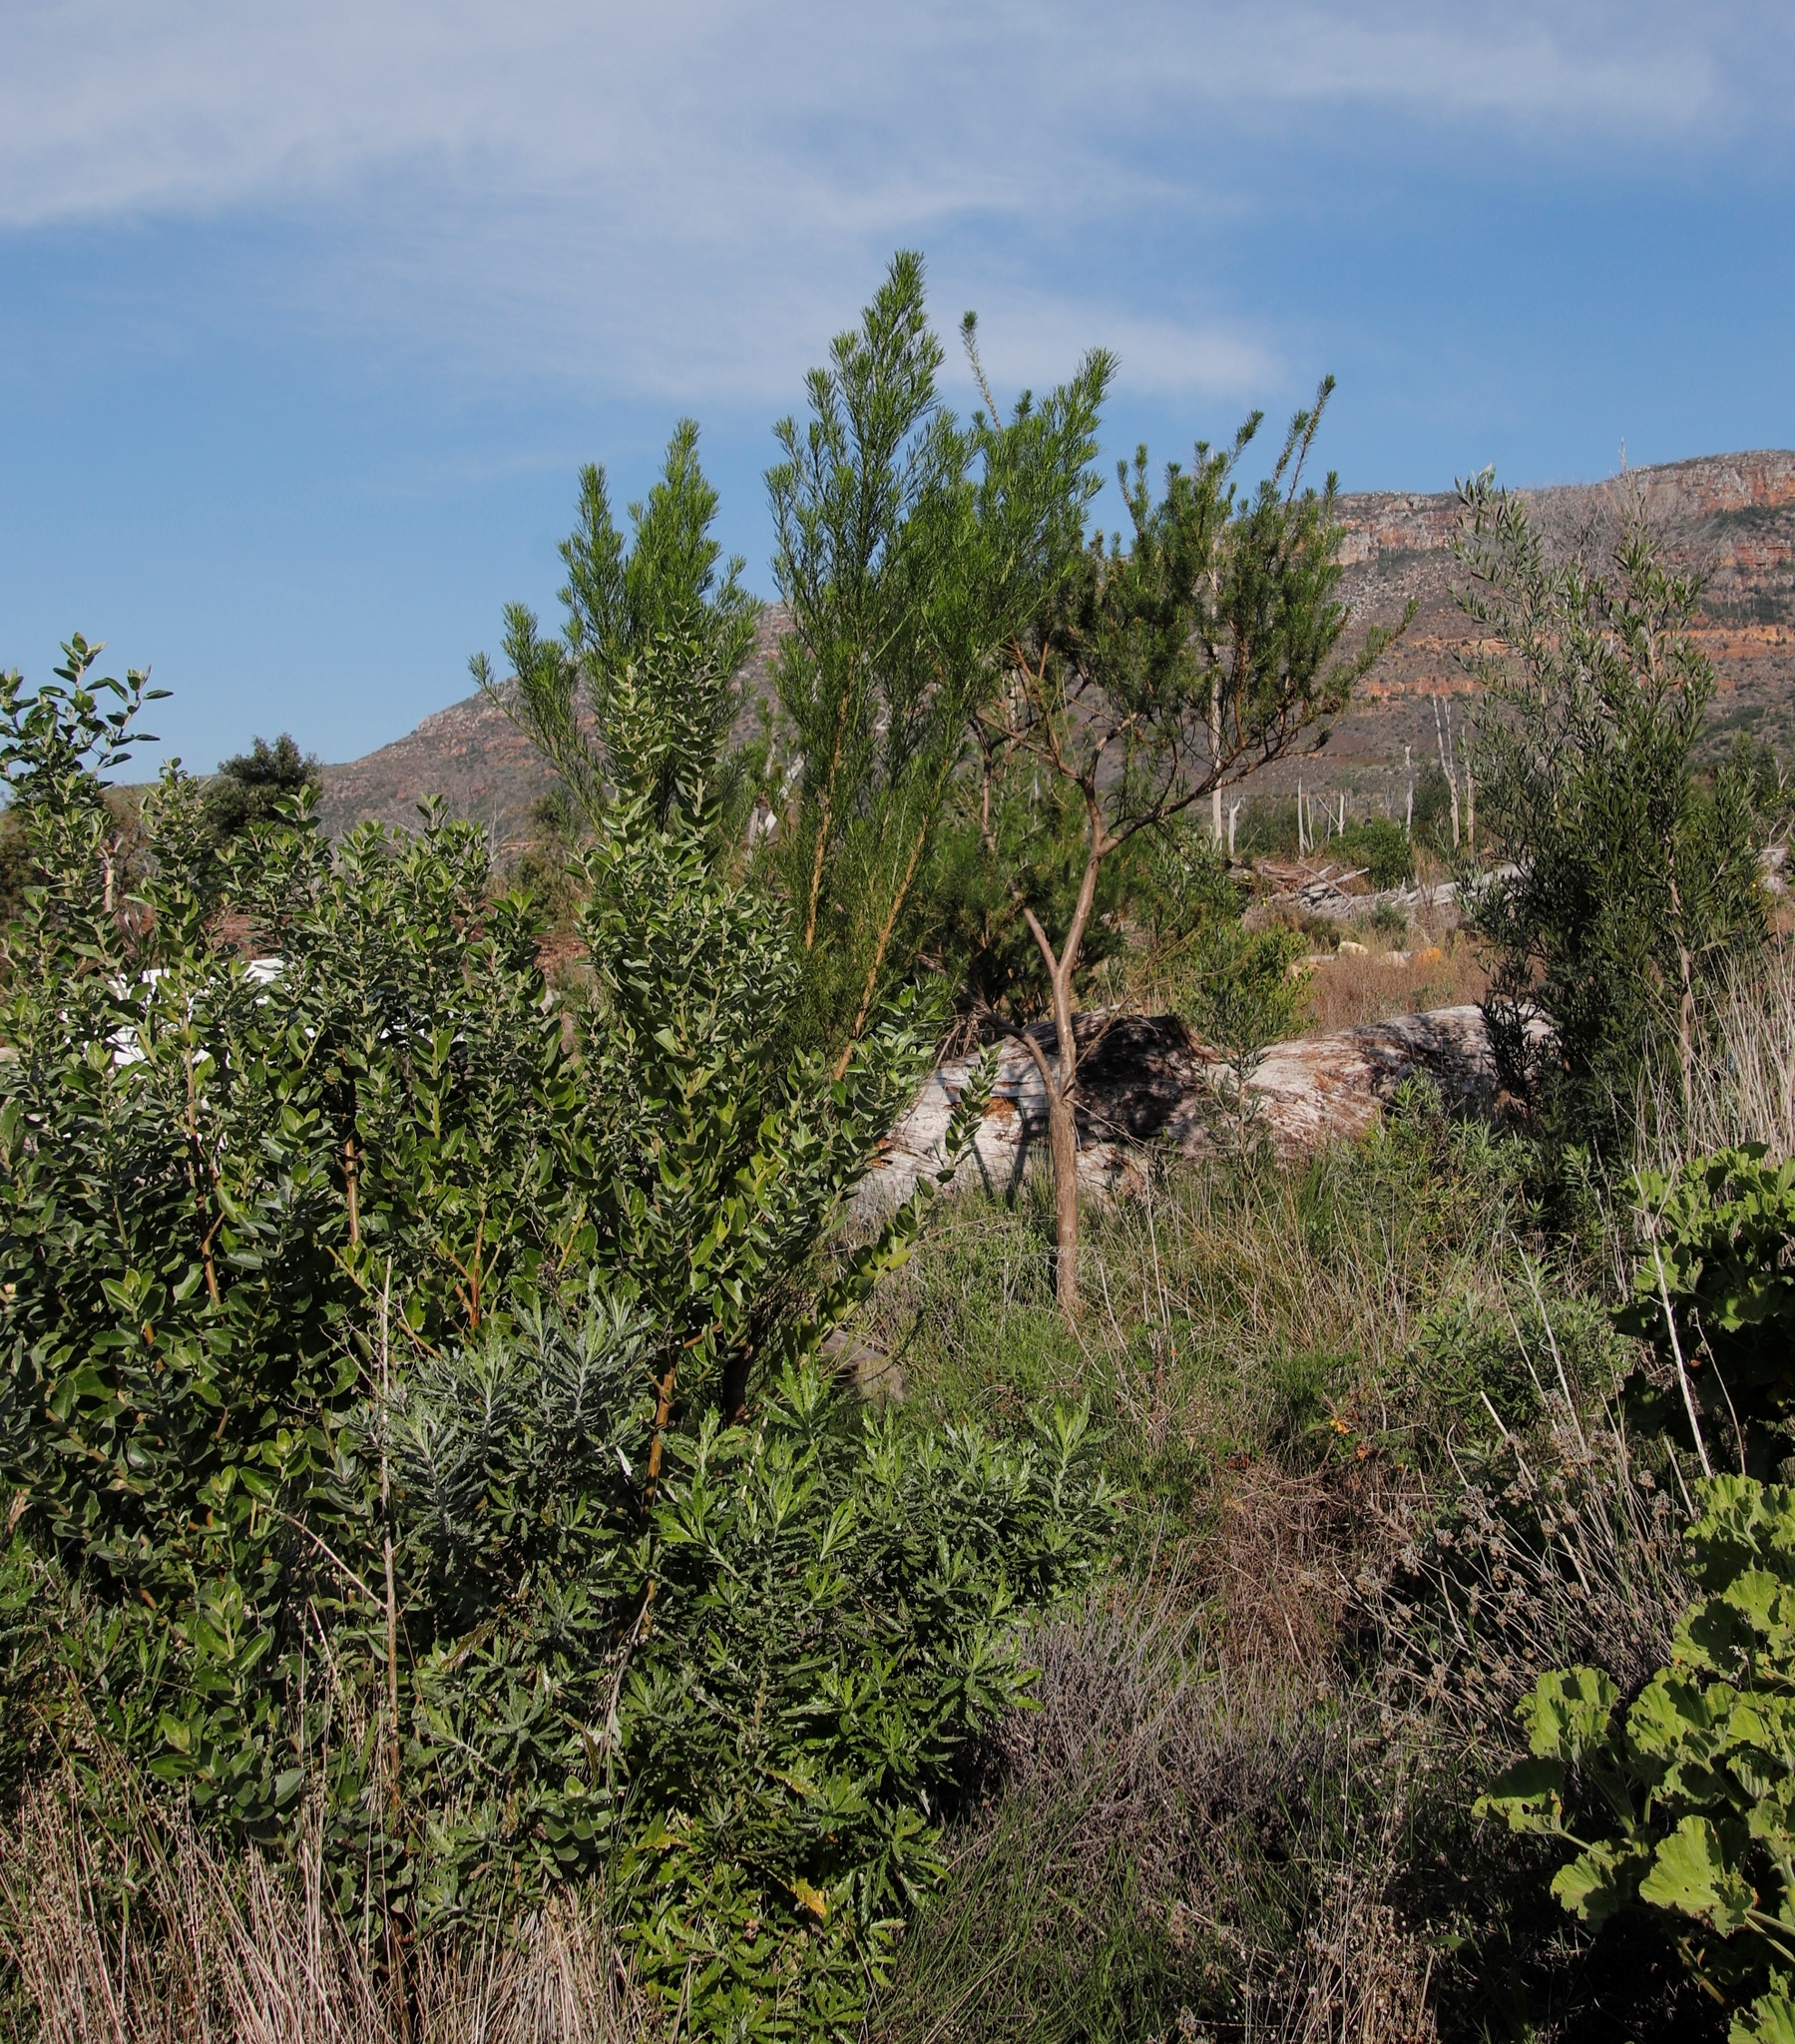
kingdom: Plantae
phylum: Tracheophyta
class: Magnoliopsida
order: Fabales
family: Fabaceae
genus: Psoralea
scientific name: Psoralea pinnata
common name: African scurfpea
